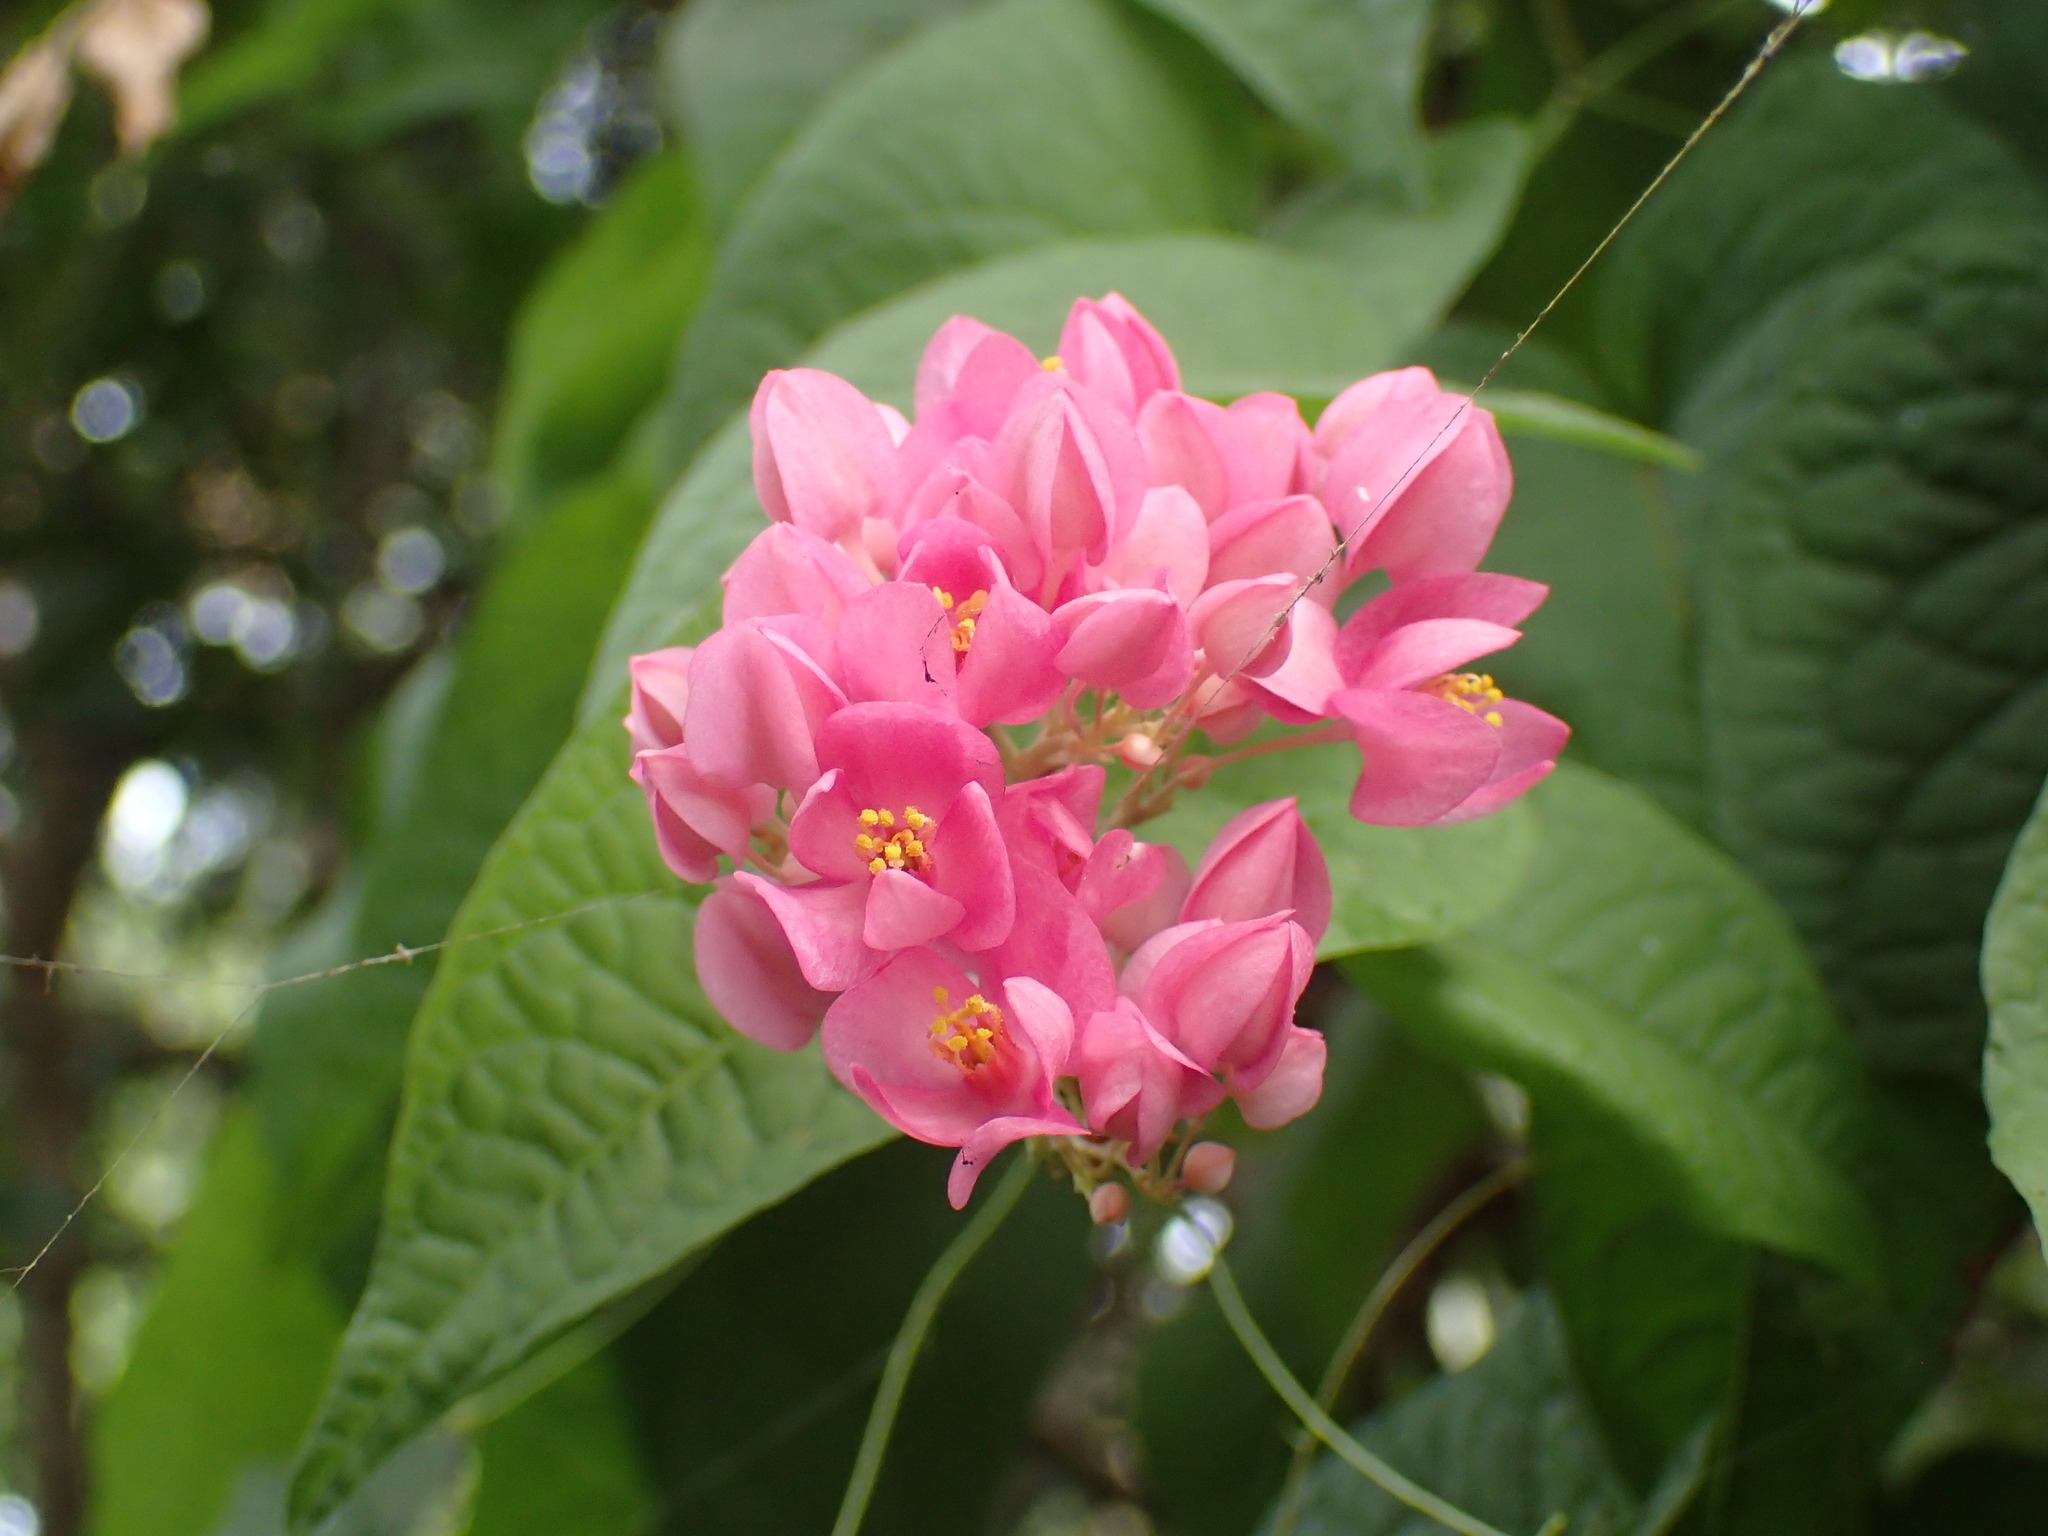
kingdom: Plantae
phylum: Tracheophyta
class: Magnoliopsida
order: Caryophyllales
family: Polygonaceae
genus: Antigonon
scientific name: Antigonon leptopus
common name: Coral vine
